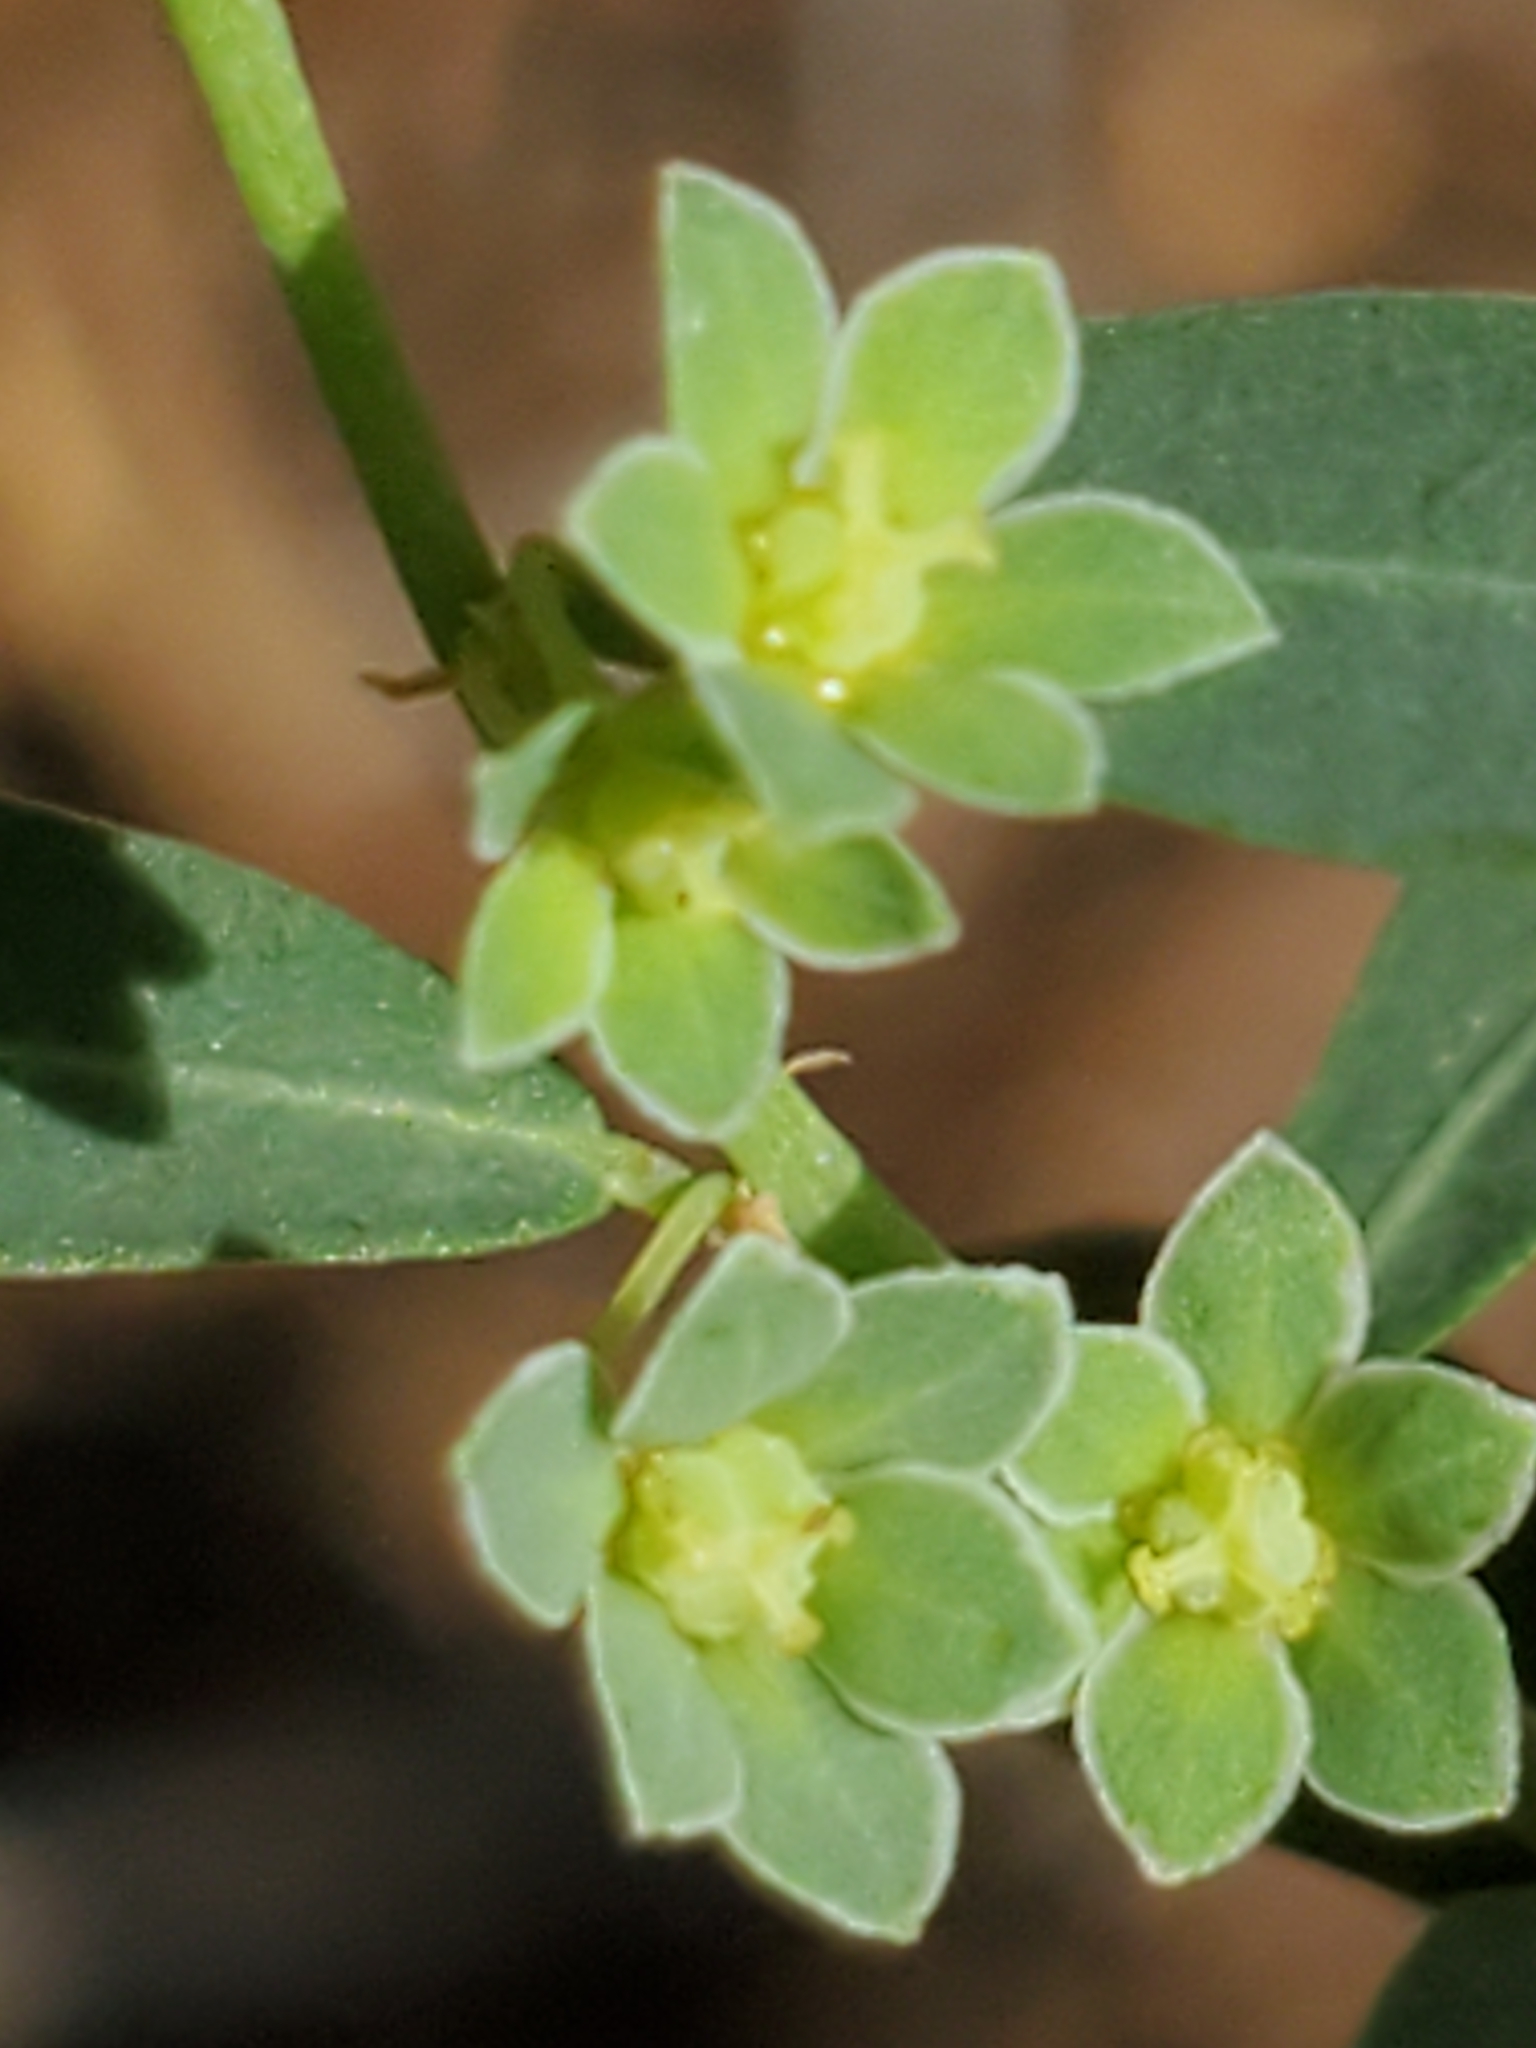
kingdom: Plantae
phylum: Tracheophyta
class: Magnoliopsida
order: Malpighiales
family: Phyllanthaceae
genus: Phyllanthus
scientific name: Phyllanthus polygonoides
